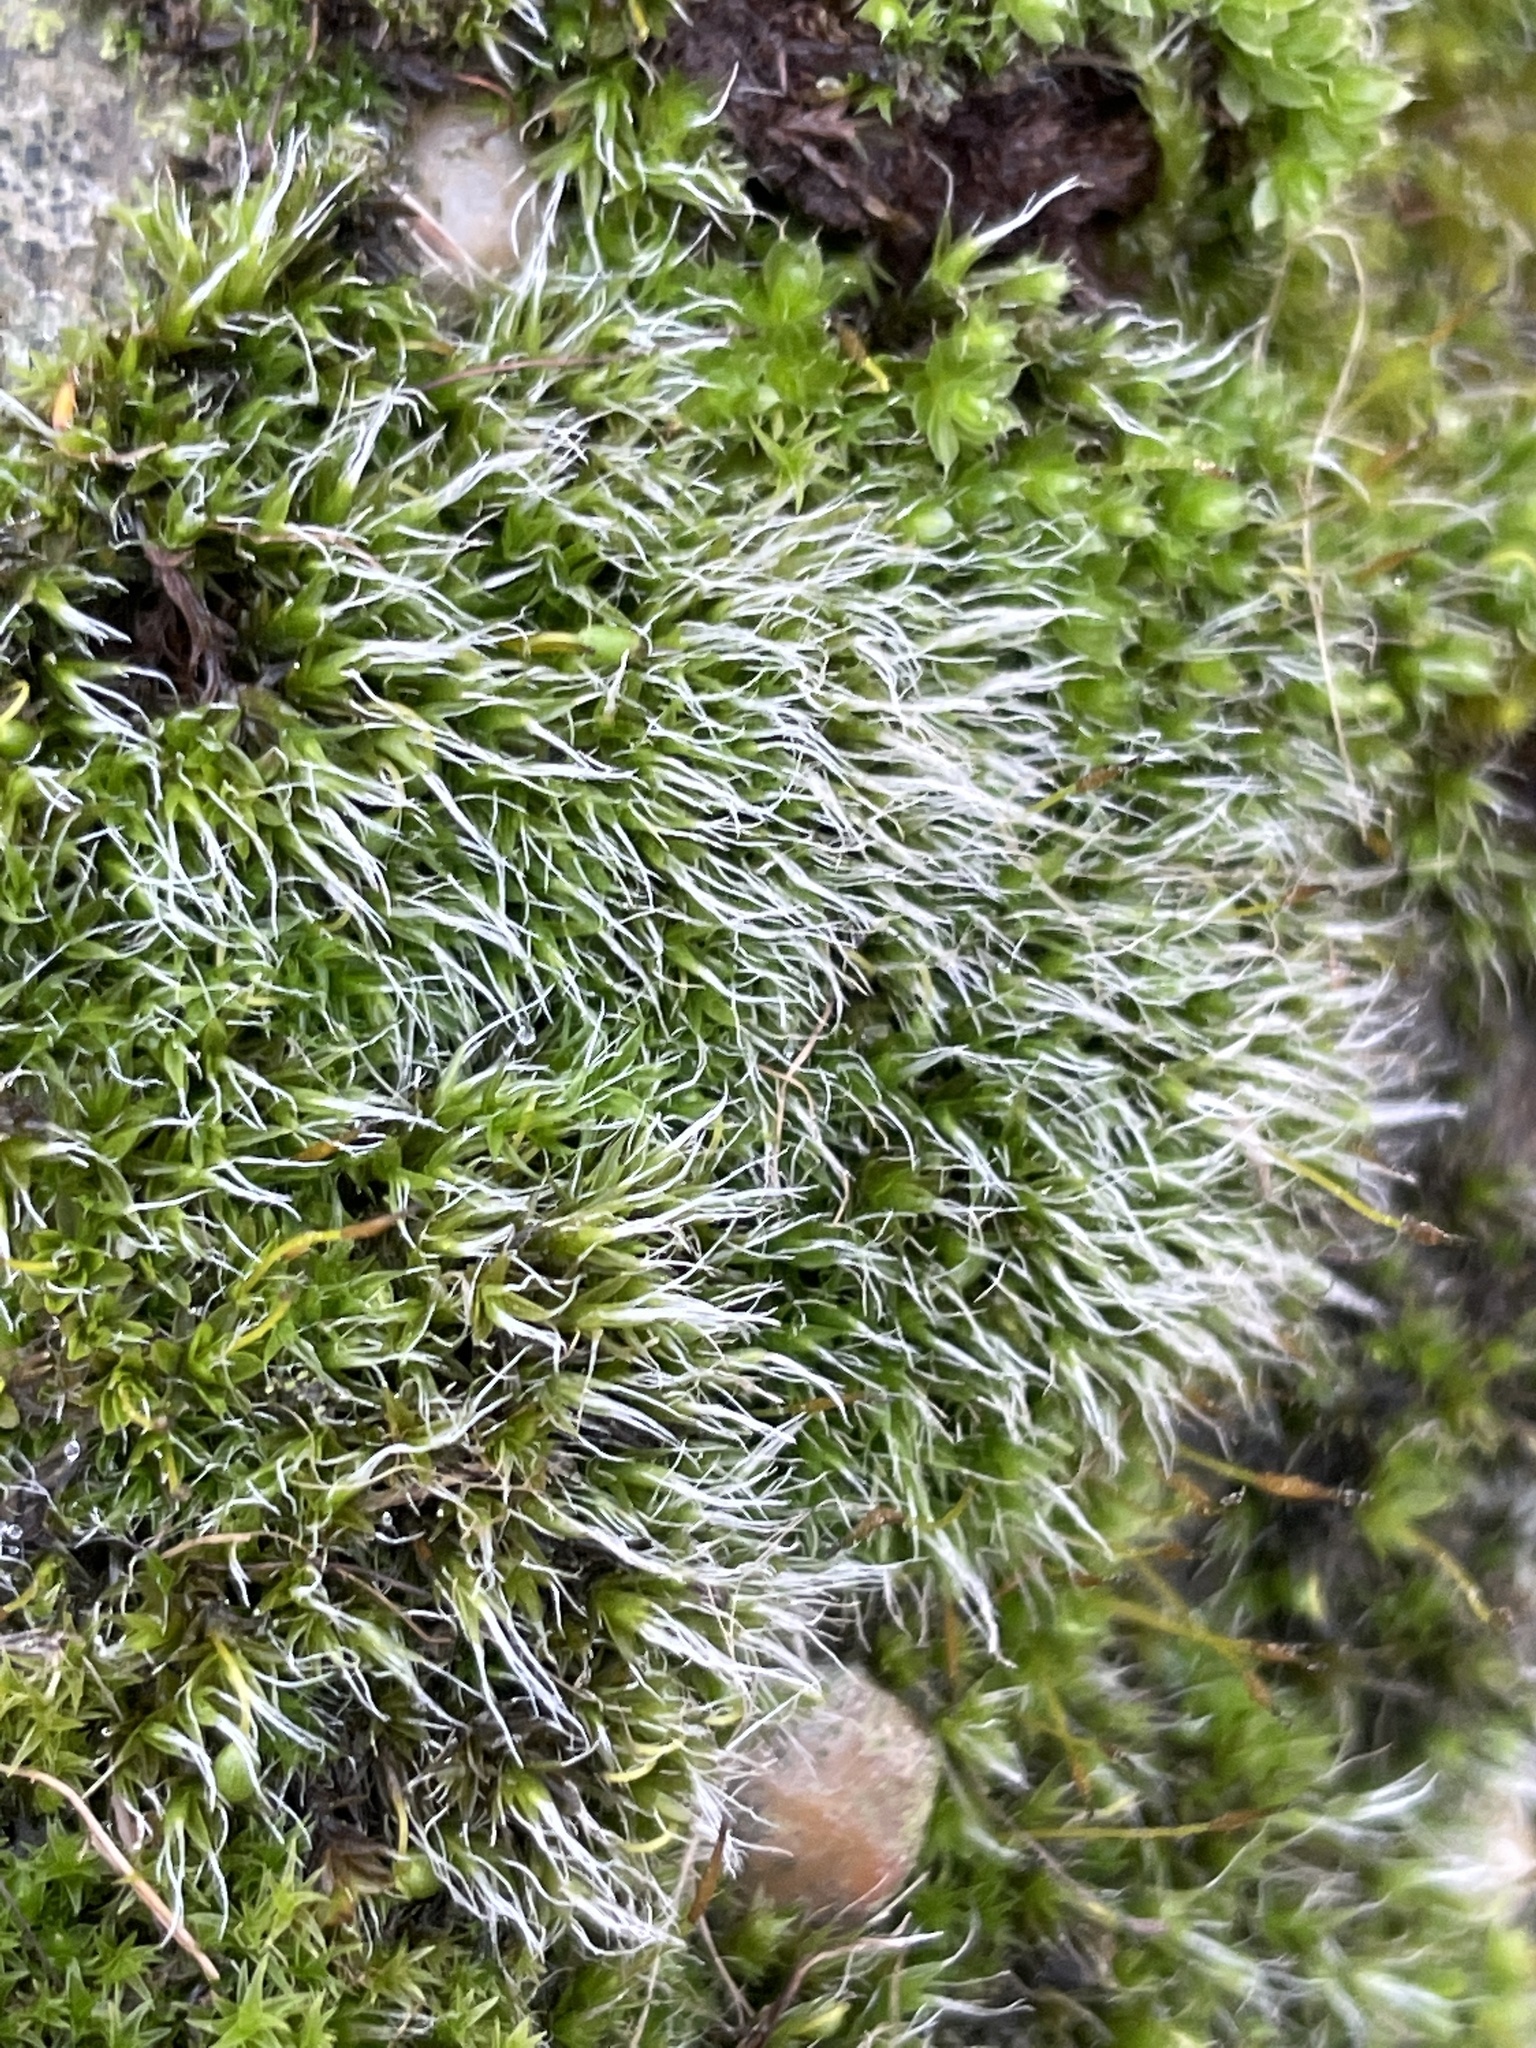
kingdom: Plantae
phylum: Bryophyta
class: Bryopsida
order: Grimmiales
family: Grimmiaceae
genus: Grimmia
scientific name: Grimmia pulvinata
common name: Grey-cushioned grimmia
